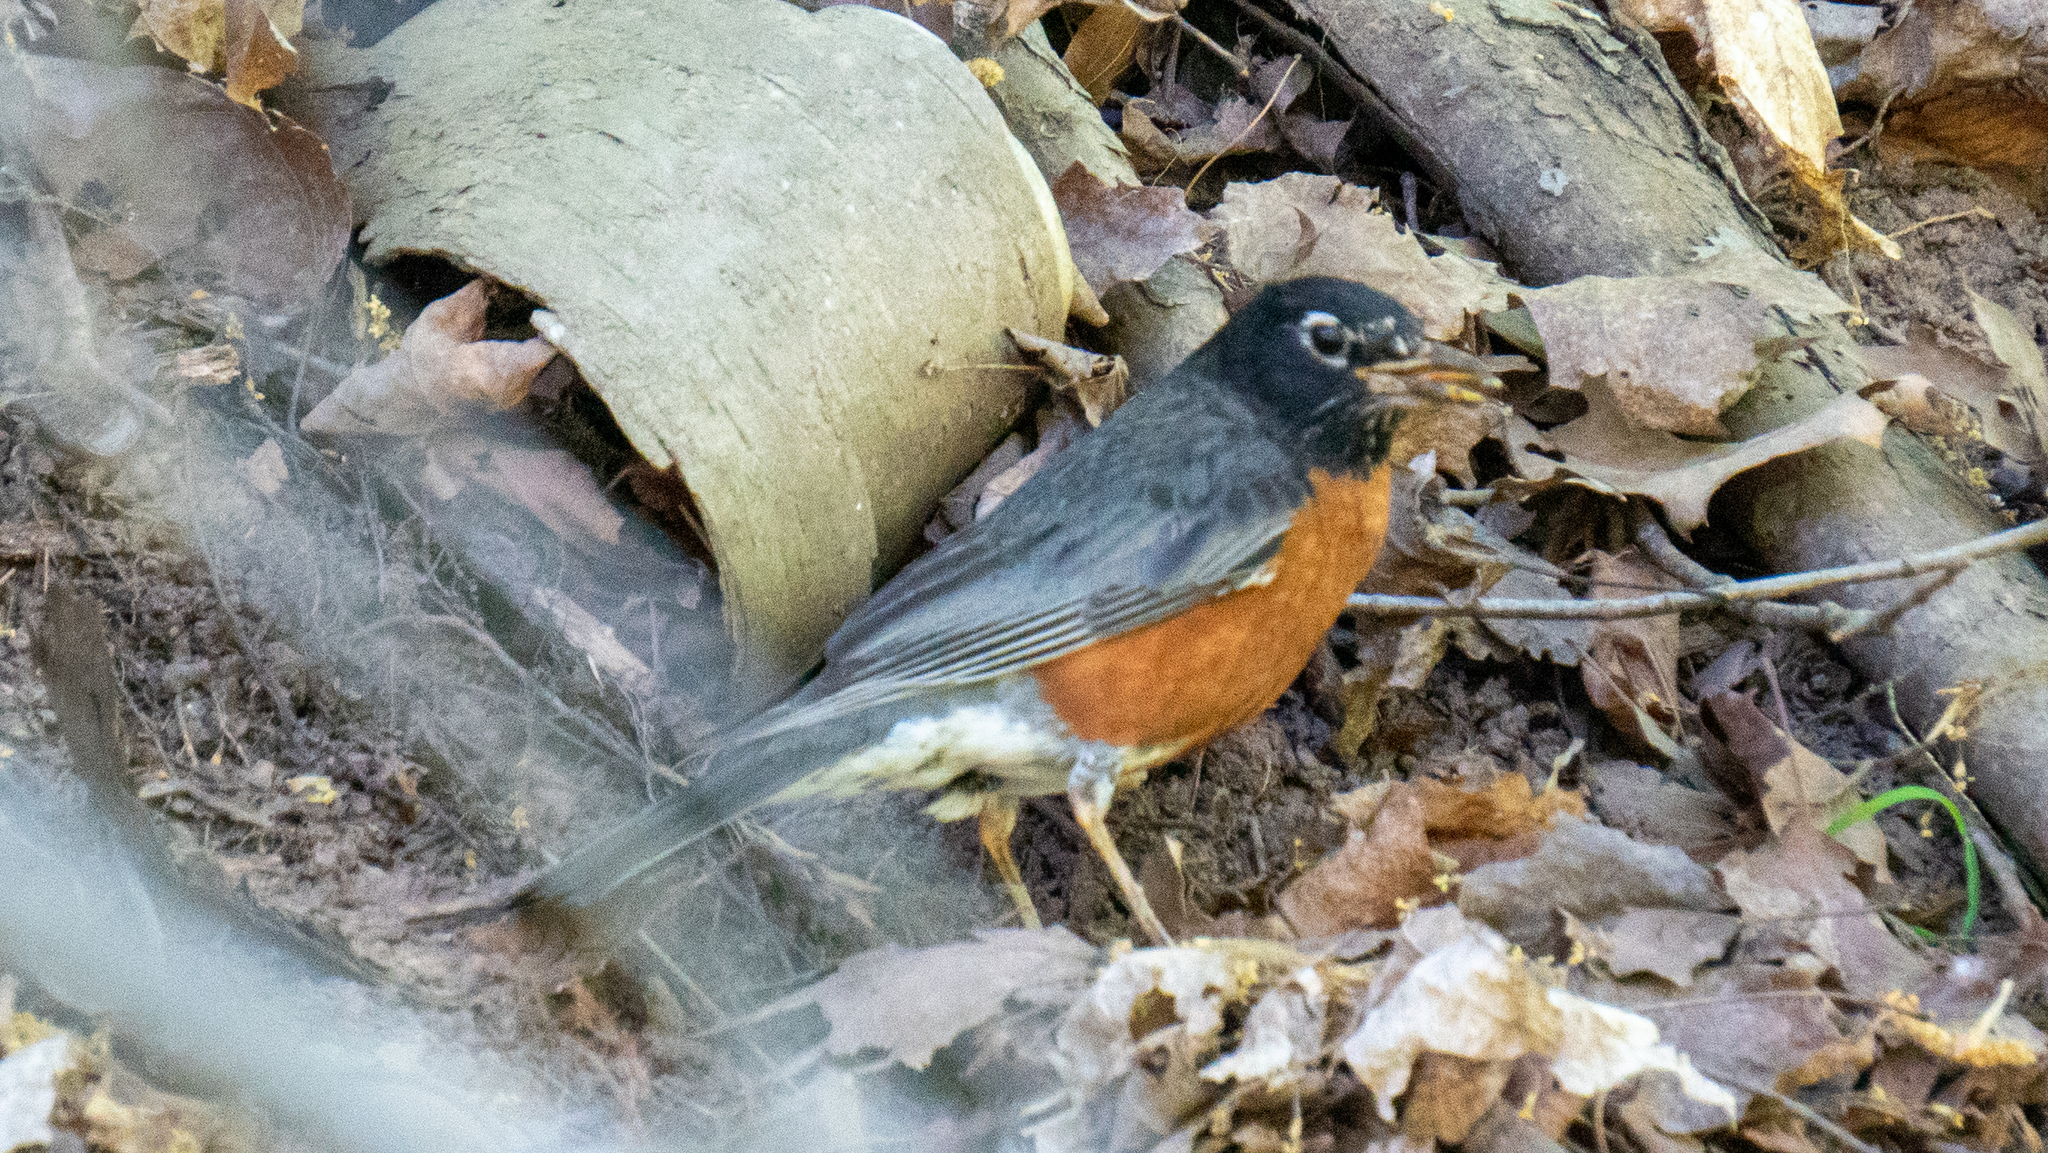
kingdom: Animalia
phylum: Chordata
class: Aves
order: Passeriformes
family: Turdidae
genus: Turdus
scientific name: Turdus migratorius
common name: American robin
